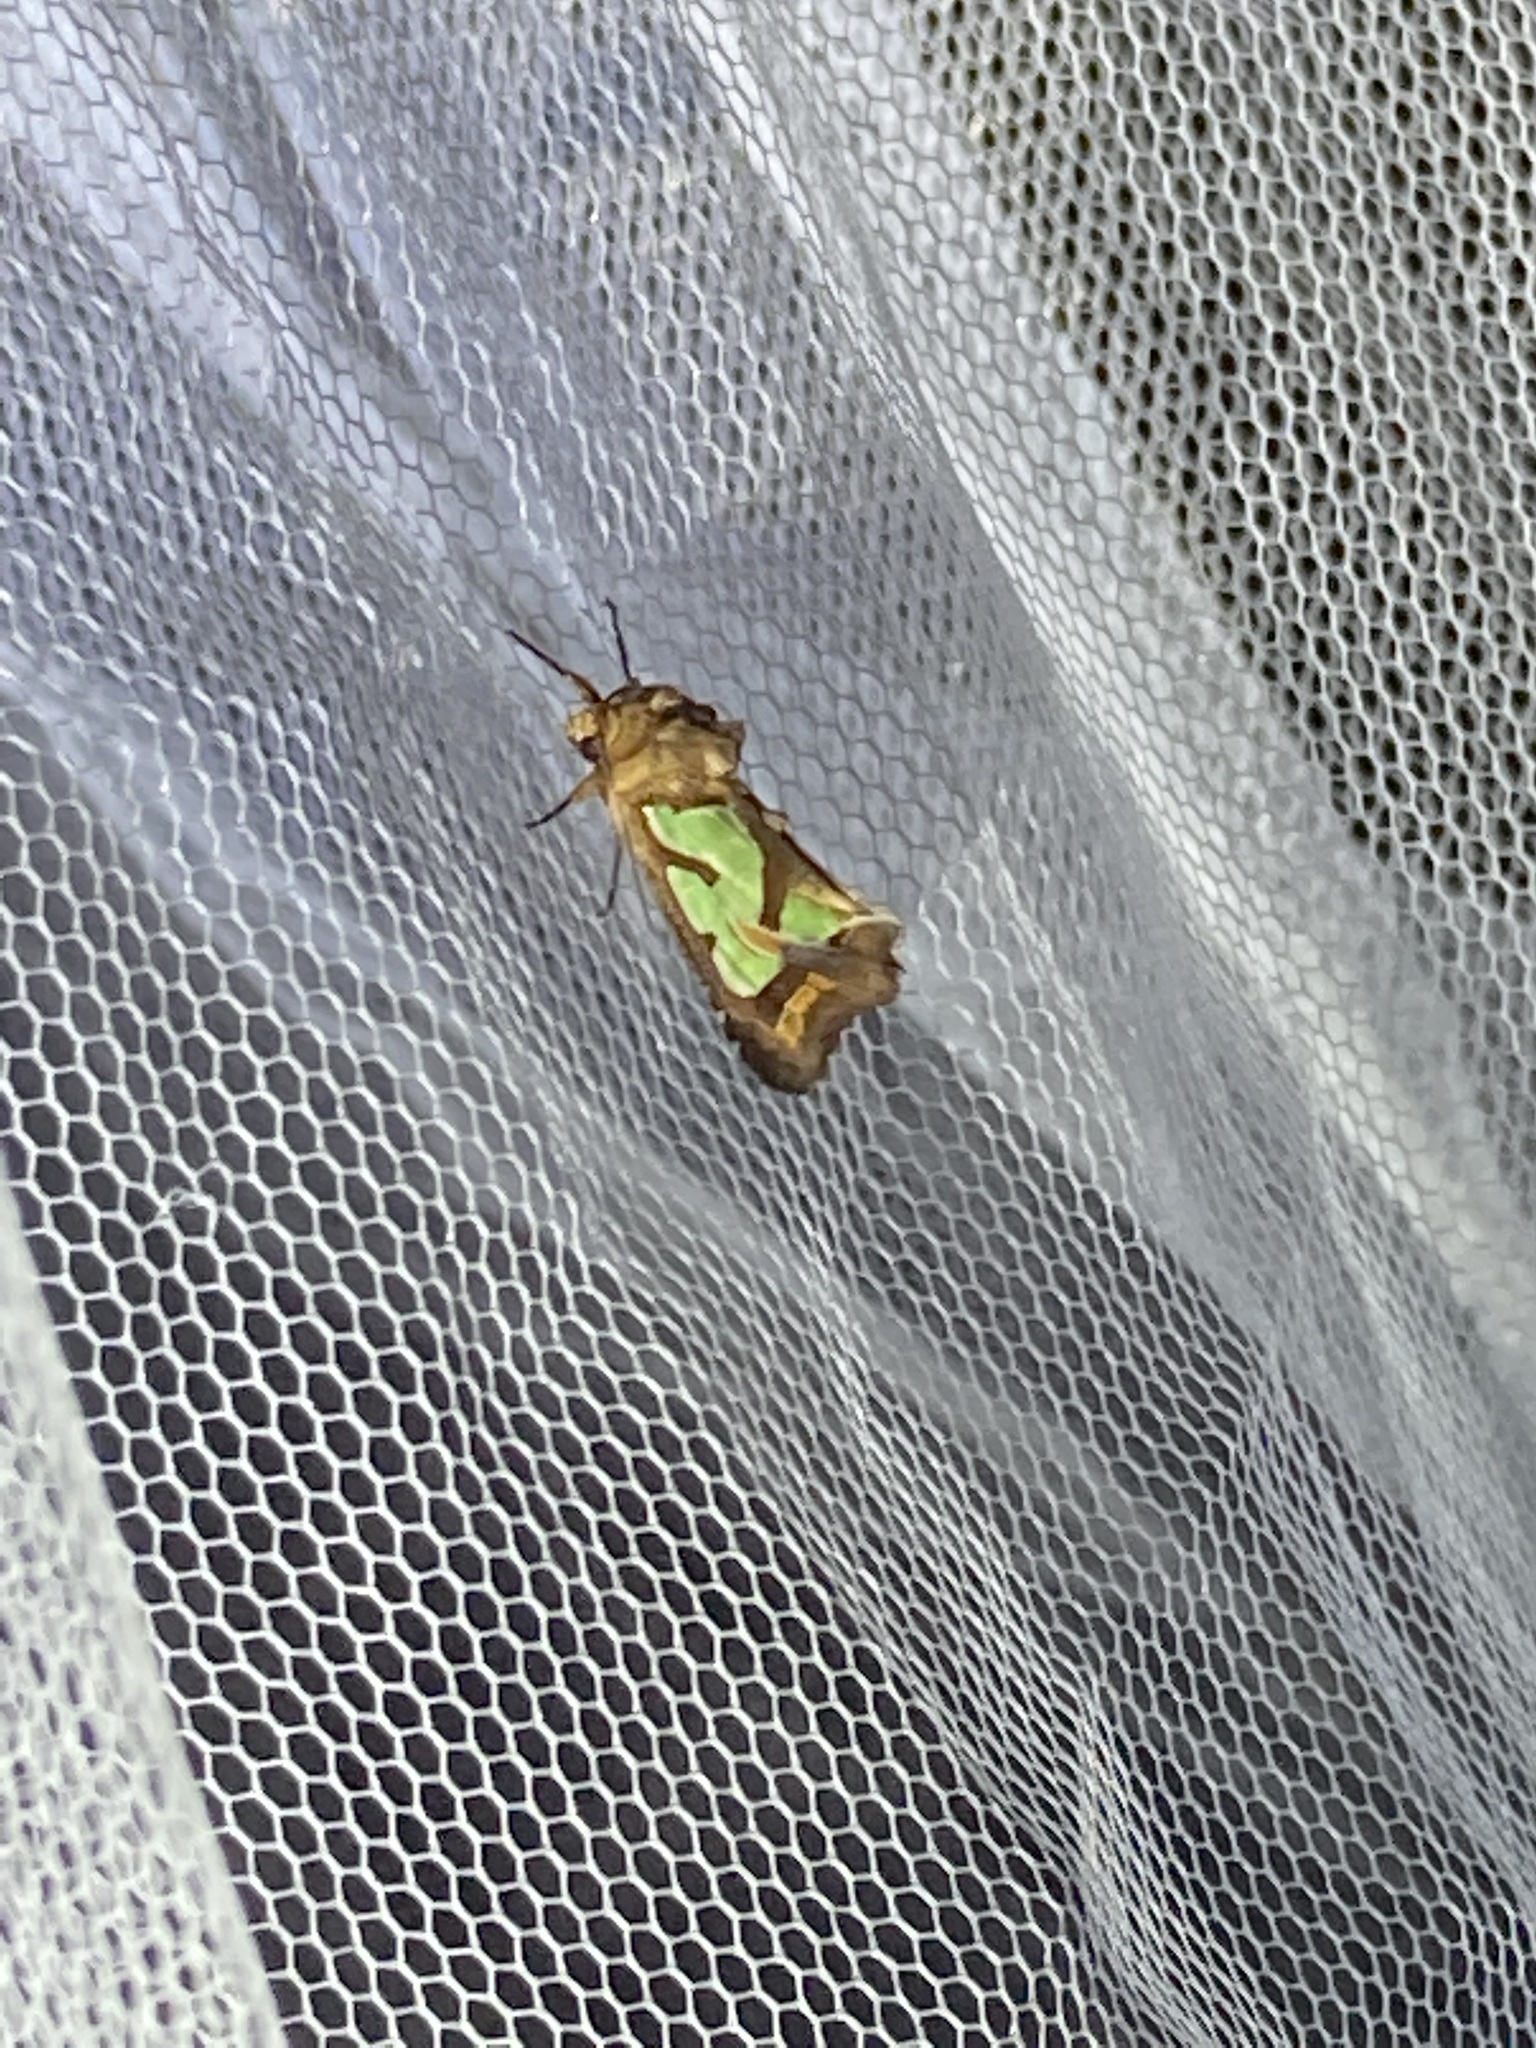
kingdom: Animalia
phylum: Arthropoda
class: Insecta
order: Lepidoptera
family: Noctuidae
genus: Cosmodes
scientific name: Cosmodes elegans
